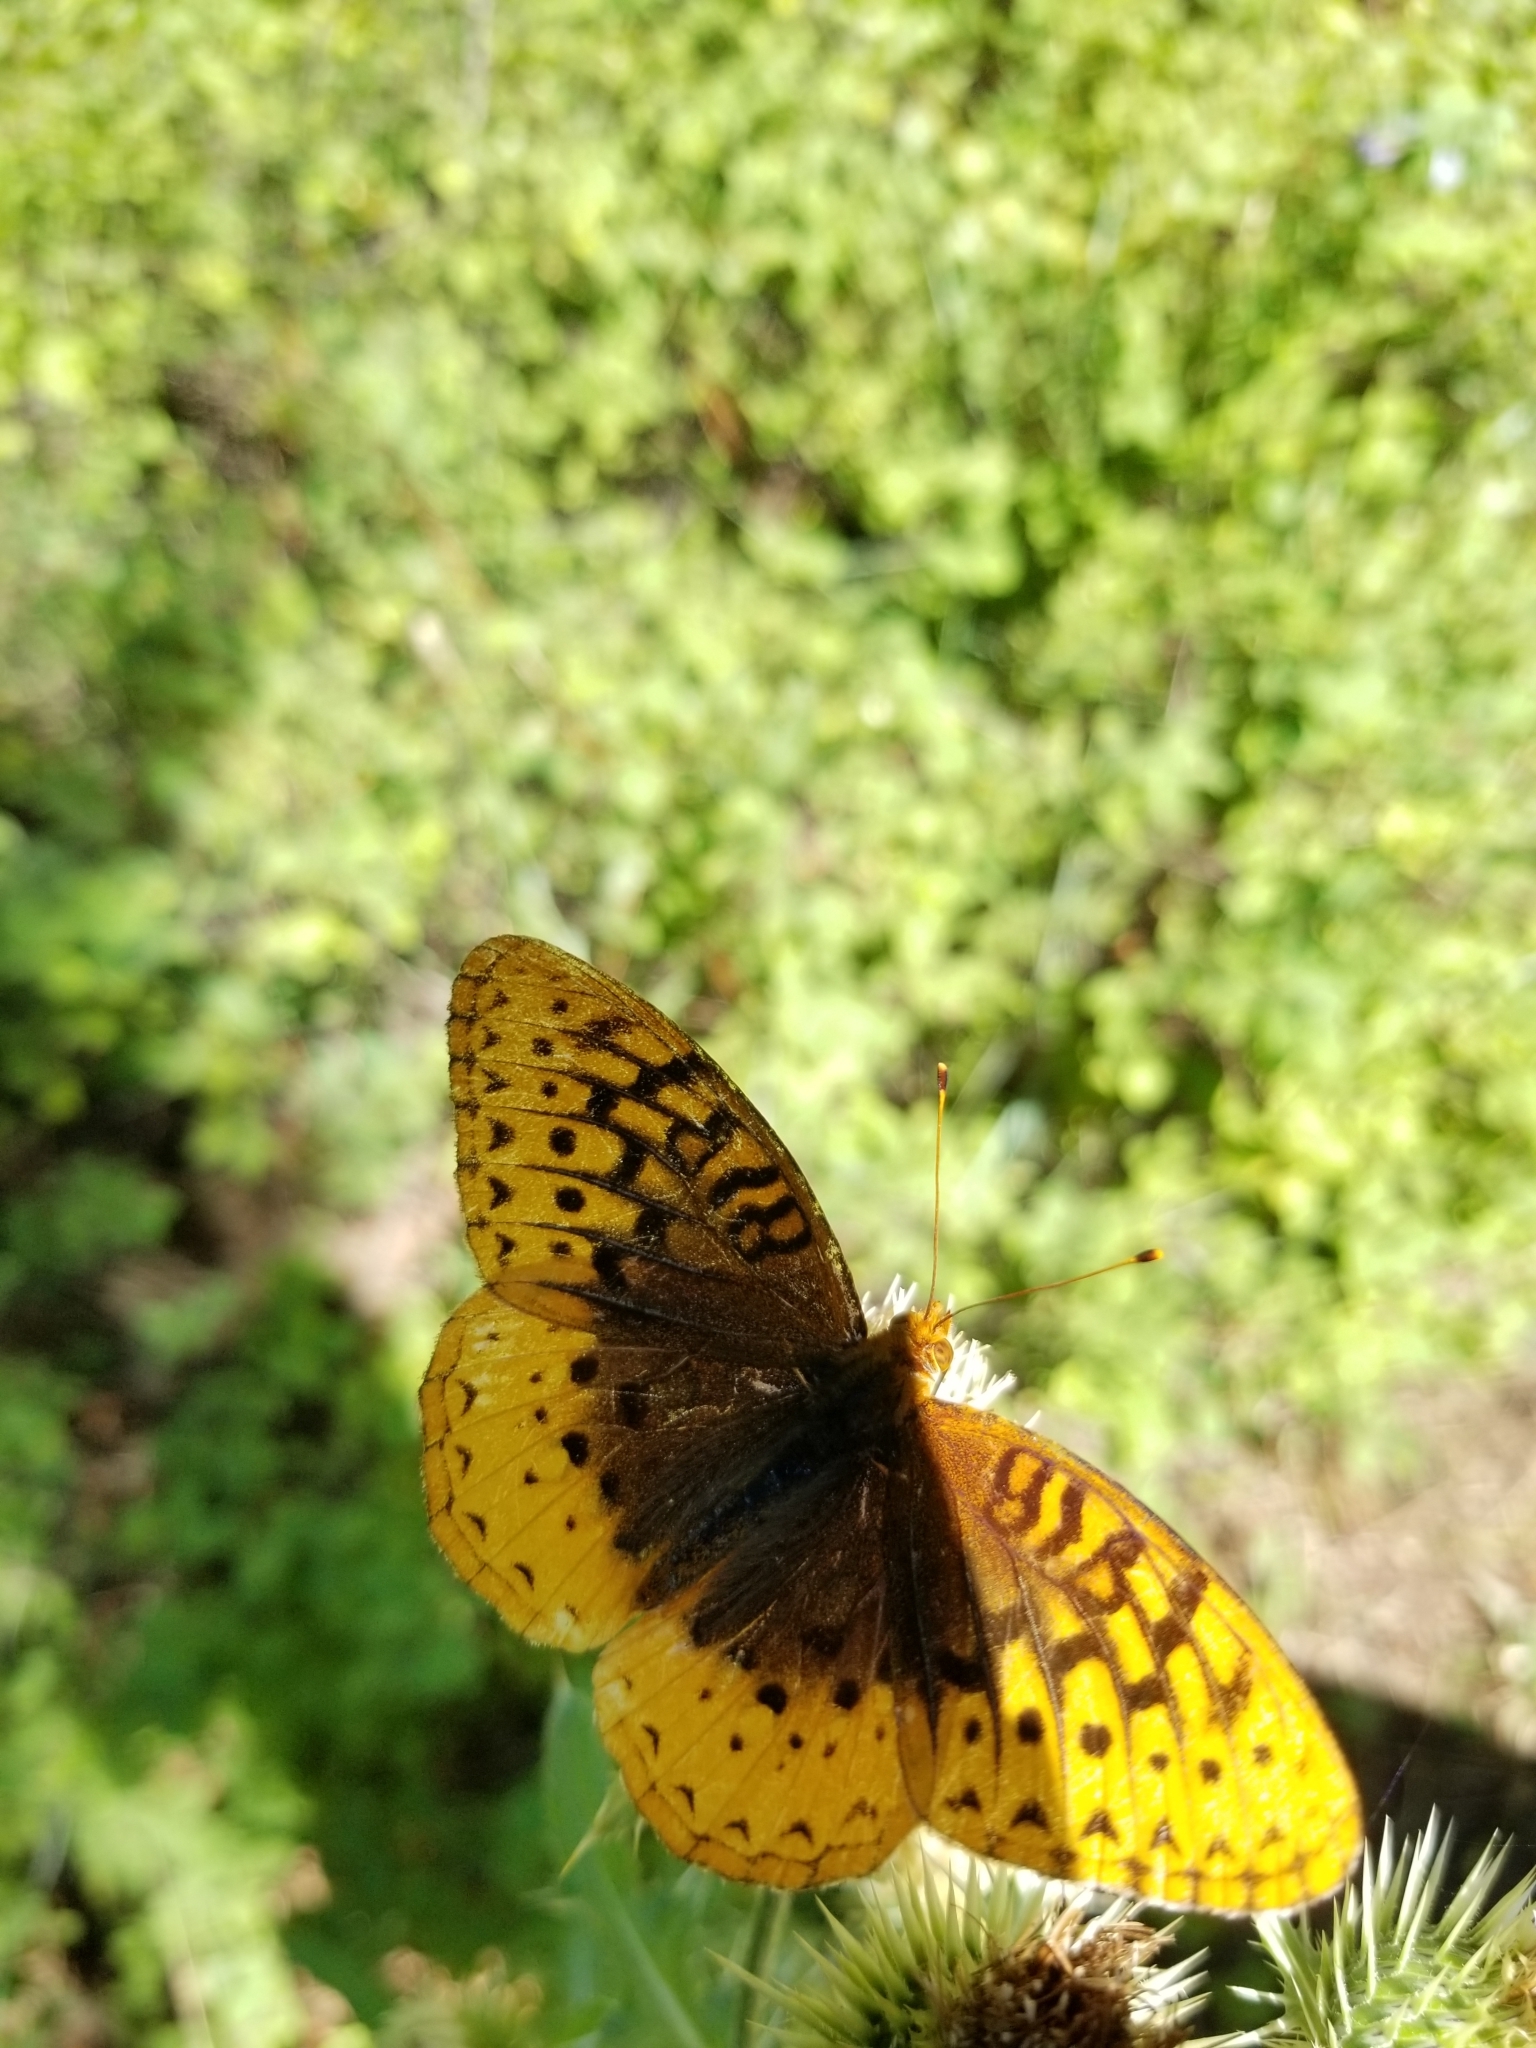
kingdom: Animalia
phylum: Arthropoda
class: Insecta
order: Lepidoptera
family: Nymphalidae
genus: Speyeria
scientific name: Speyeria cybele
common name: Great spangled fritillary
